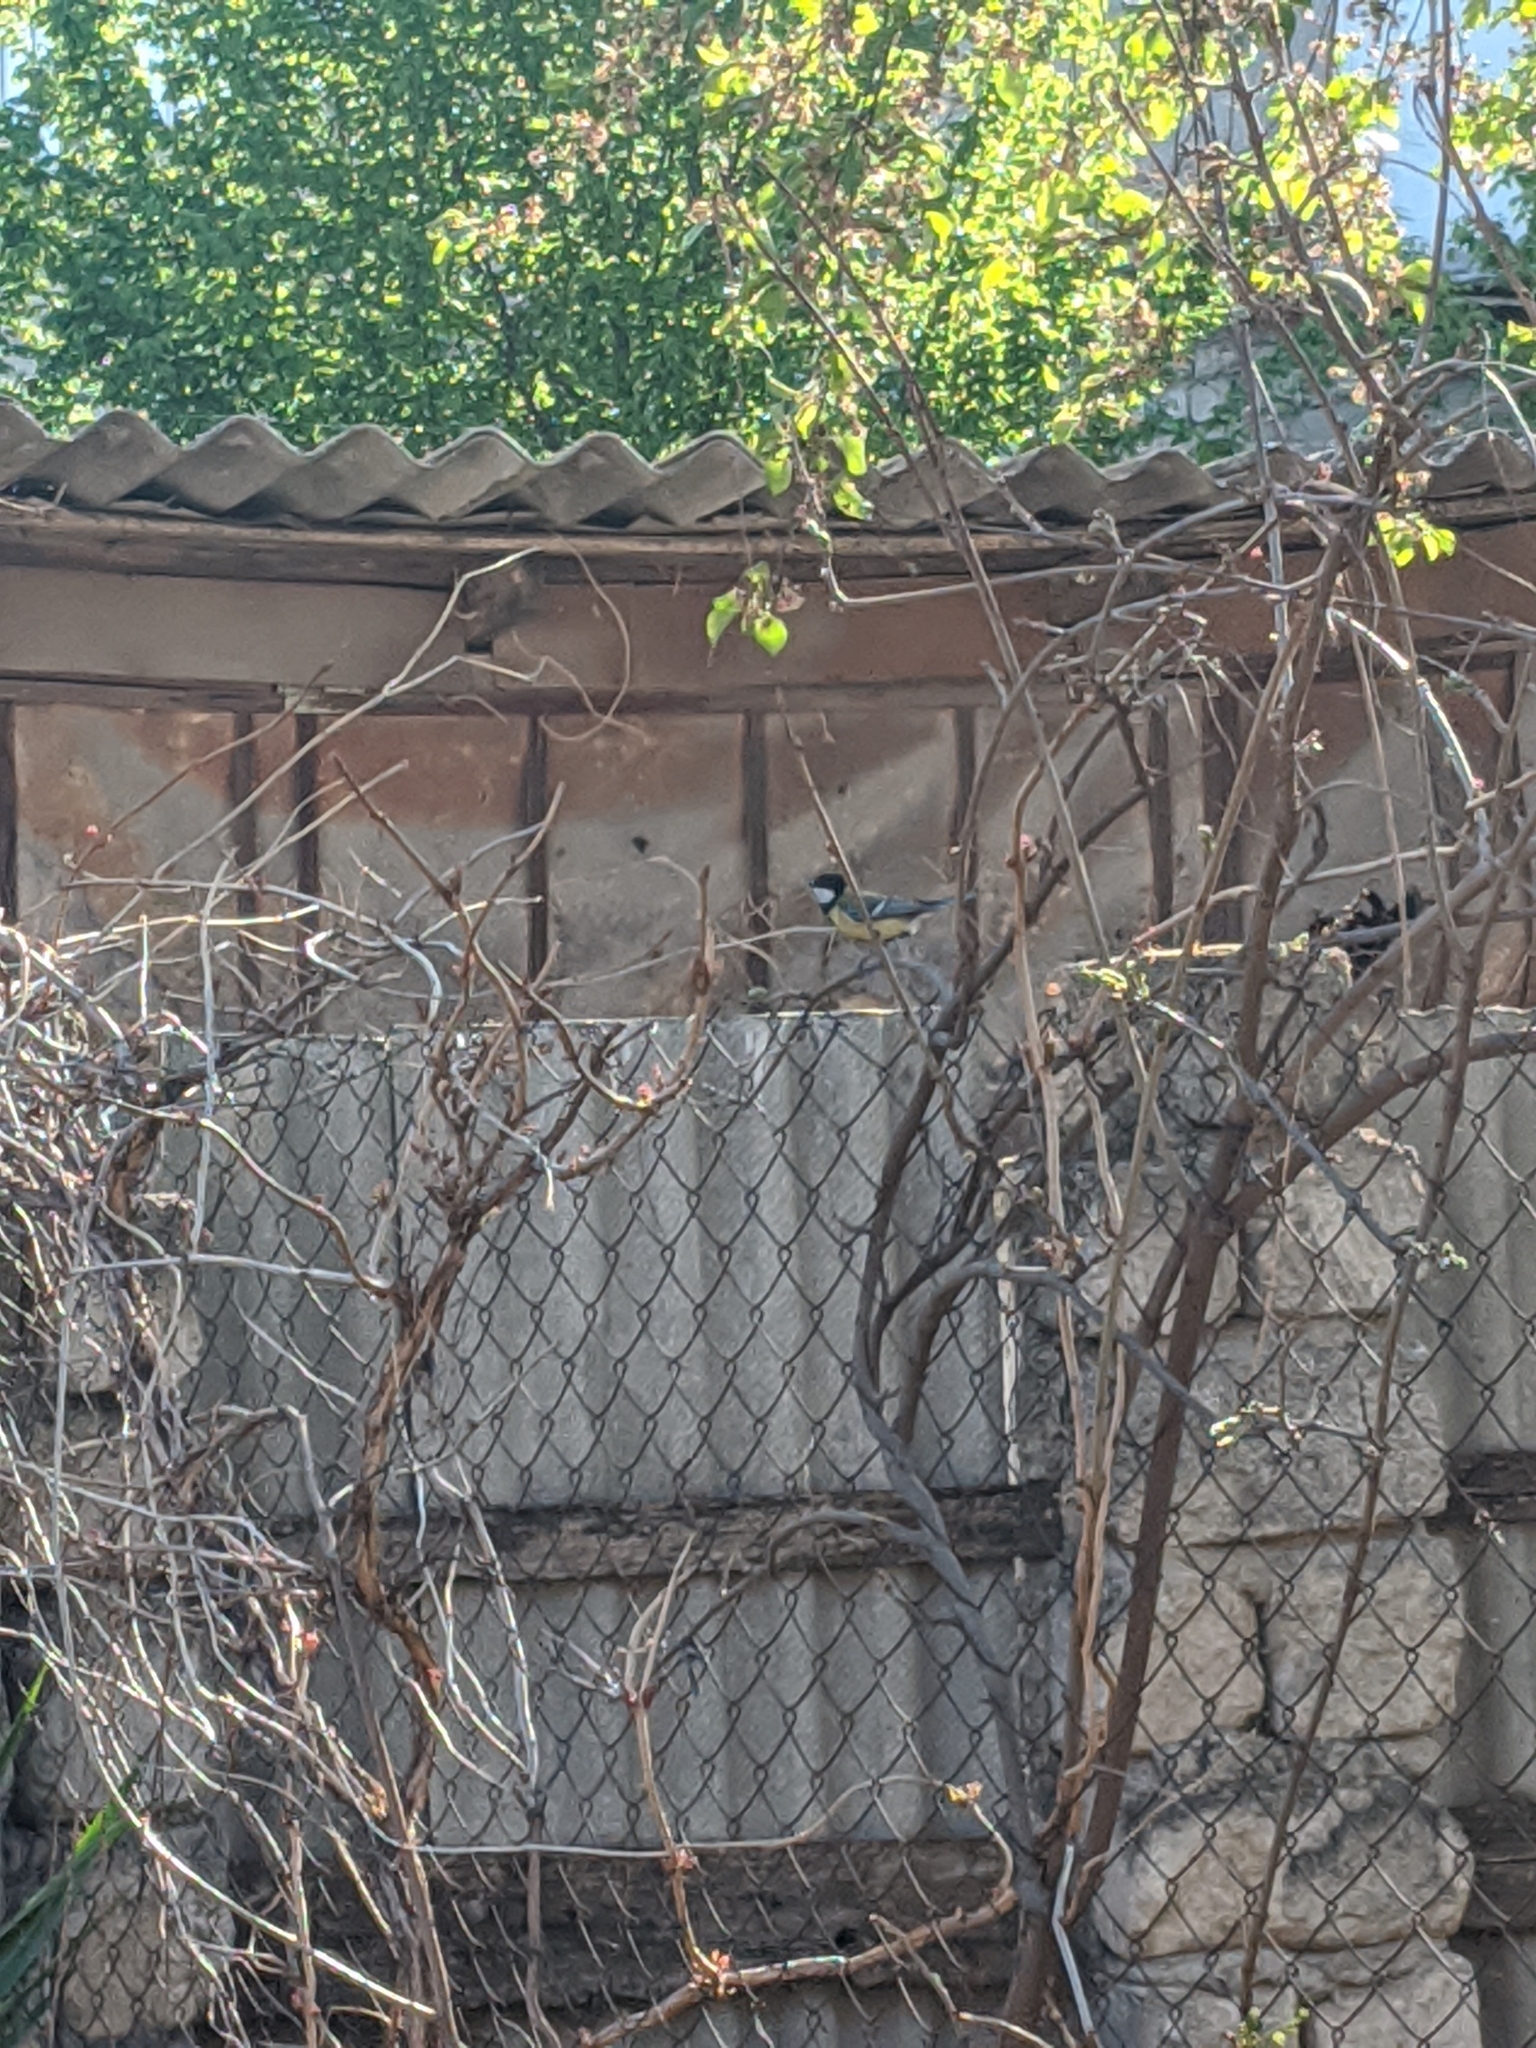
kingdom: Animalia
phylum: Chordata
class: Aves
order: Passeriformes
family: Paridae
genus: Parus
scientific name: Parus major
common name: Great tit
